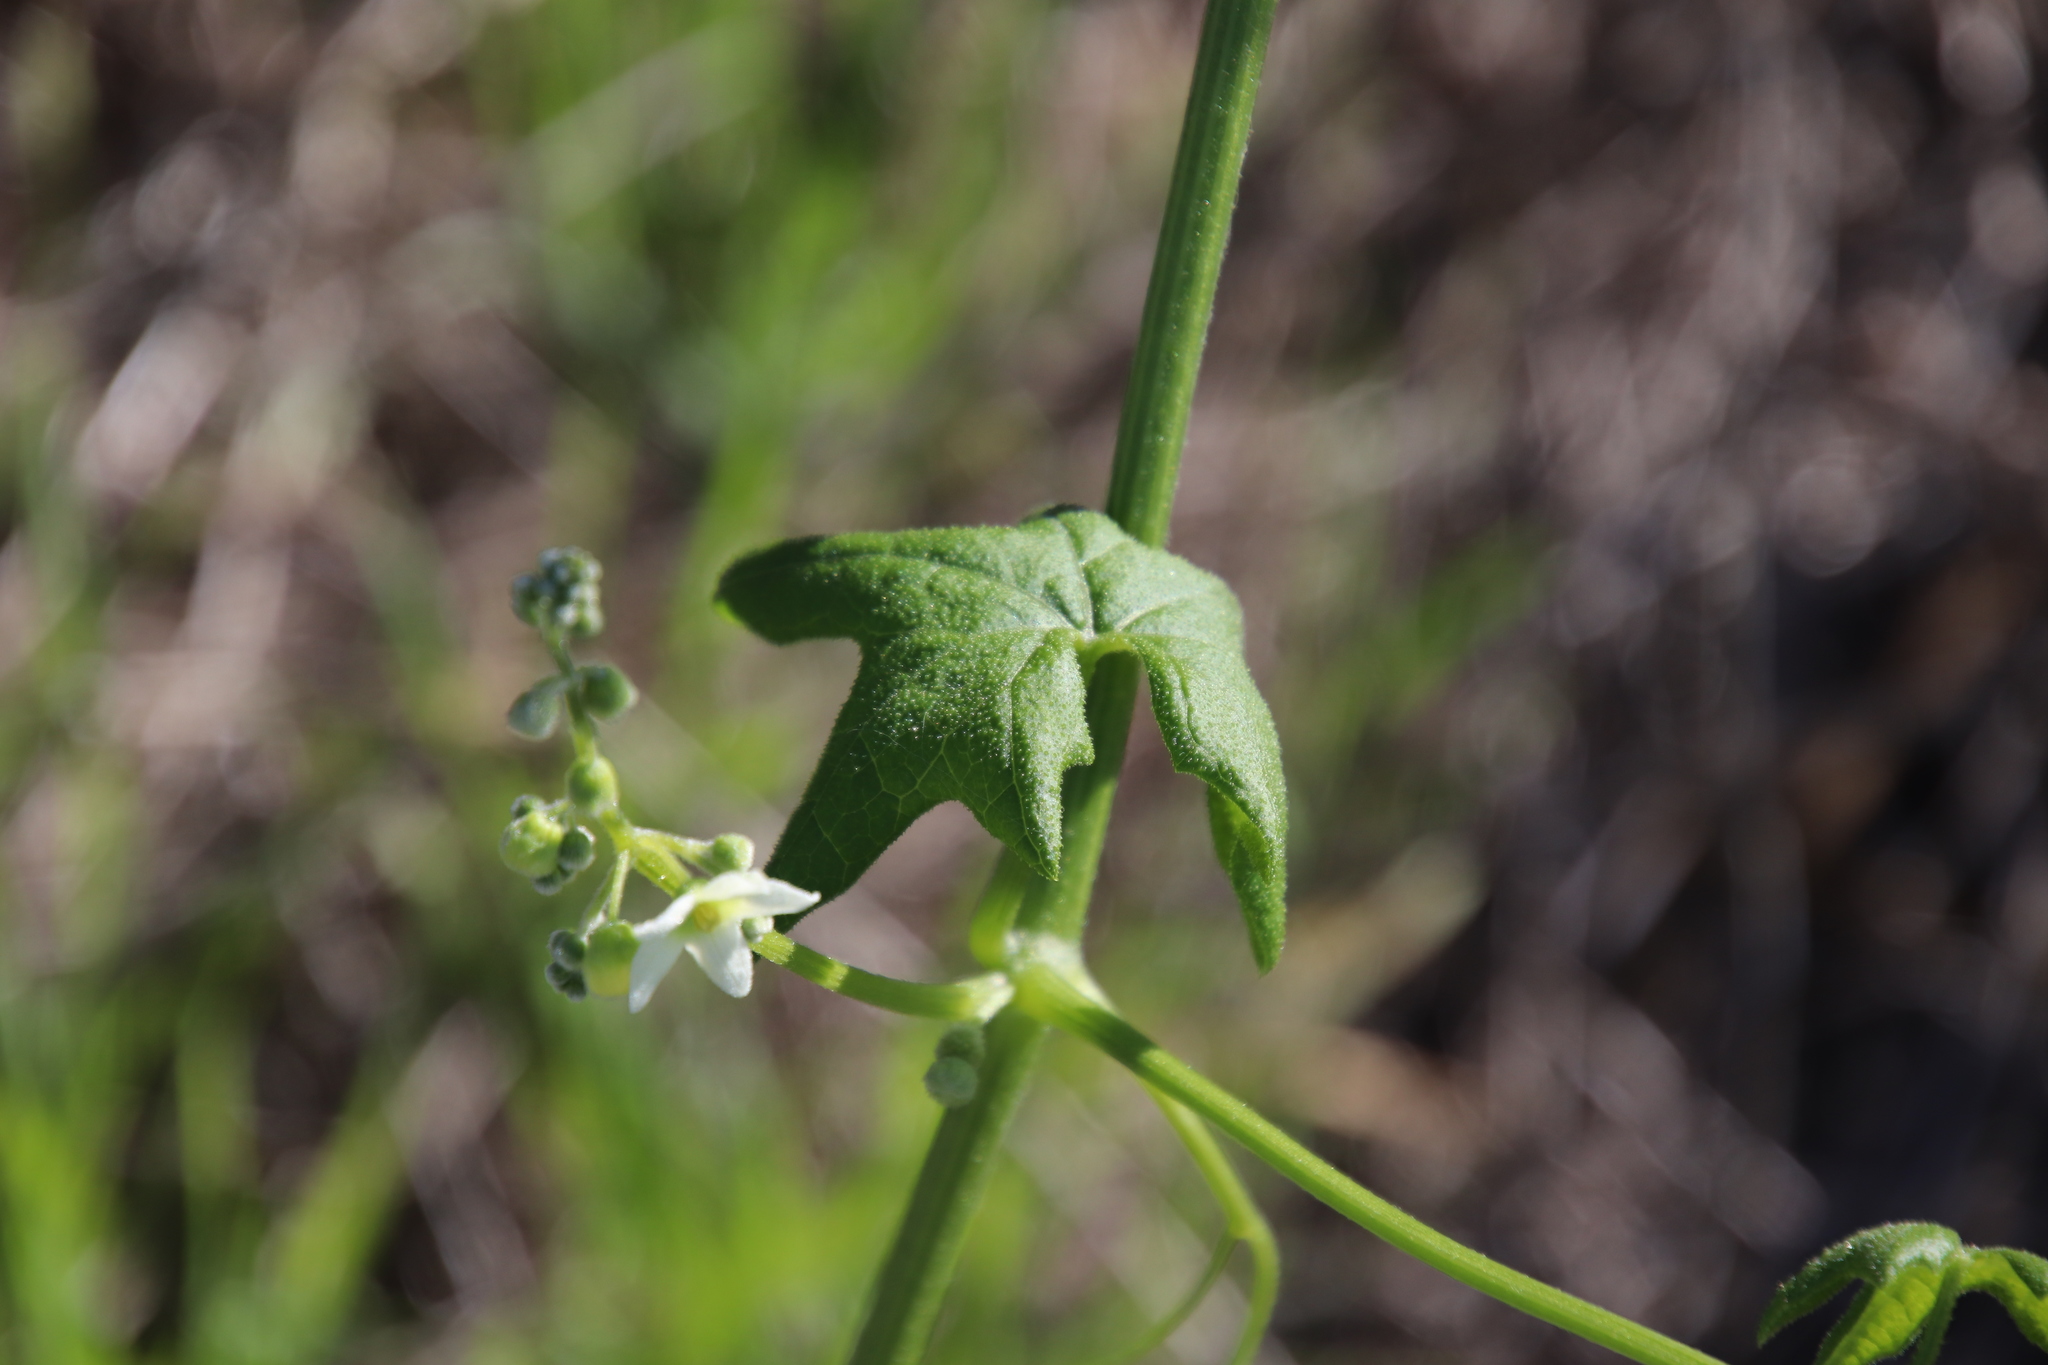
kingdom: Plantae
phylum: Tracheophyta
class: Magnoliopsida
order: Cucurbitales
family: Cucurbitaceae
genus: Marah
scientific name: Marah macrocarpa
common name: Cucamonga manroot
